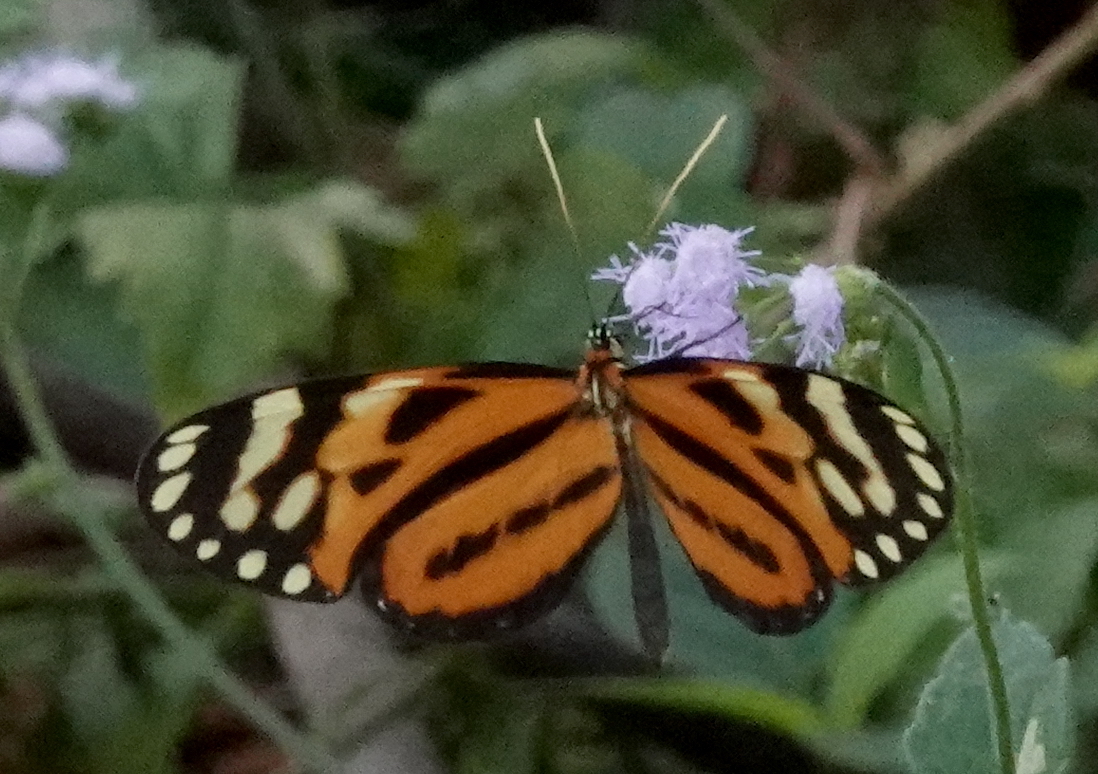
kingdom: Animalia
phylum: Arthropoda
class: Insecta
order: Lepidoptera
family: Nymphalidae
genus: Hypothyris
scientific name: Hypothyris lycaste
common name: Lycaste tigerwing
